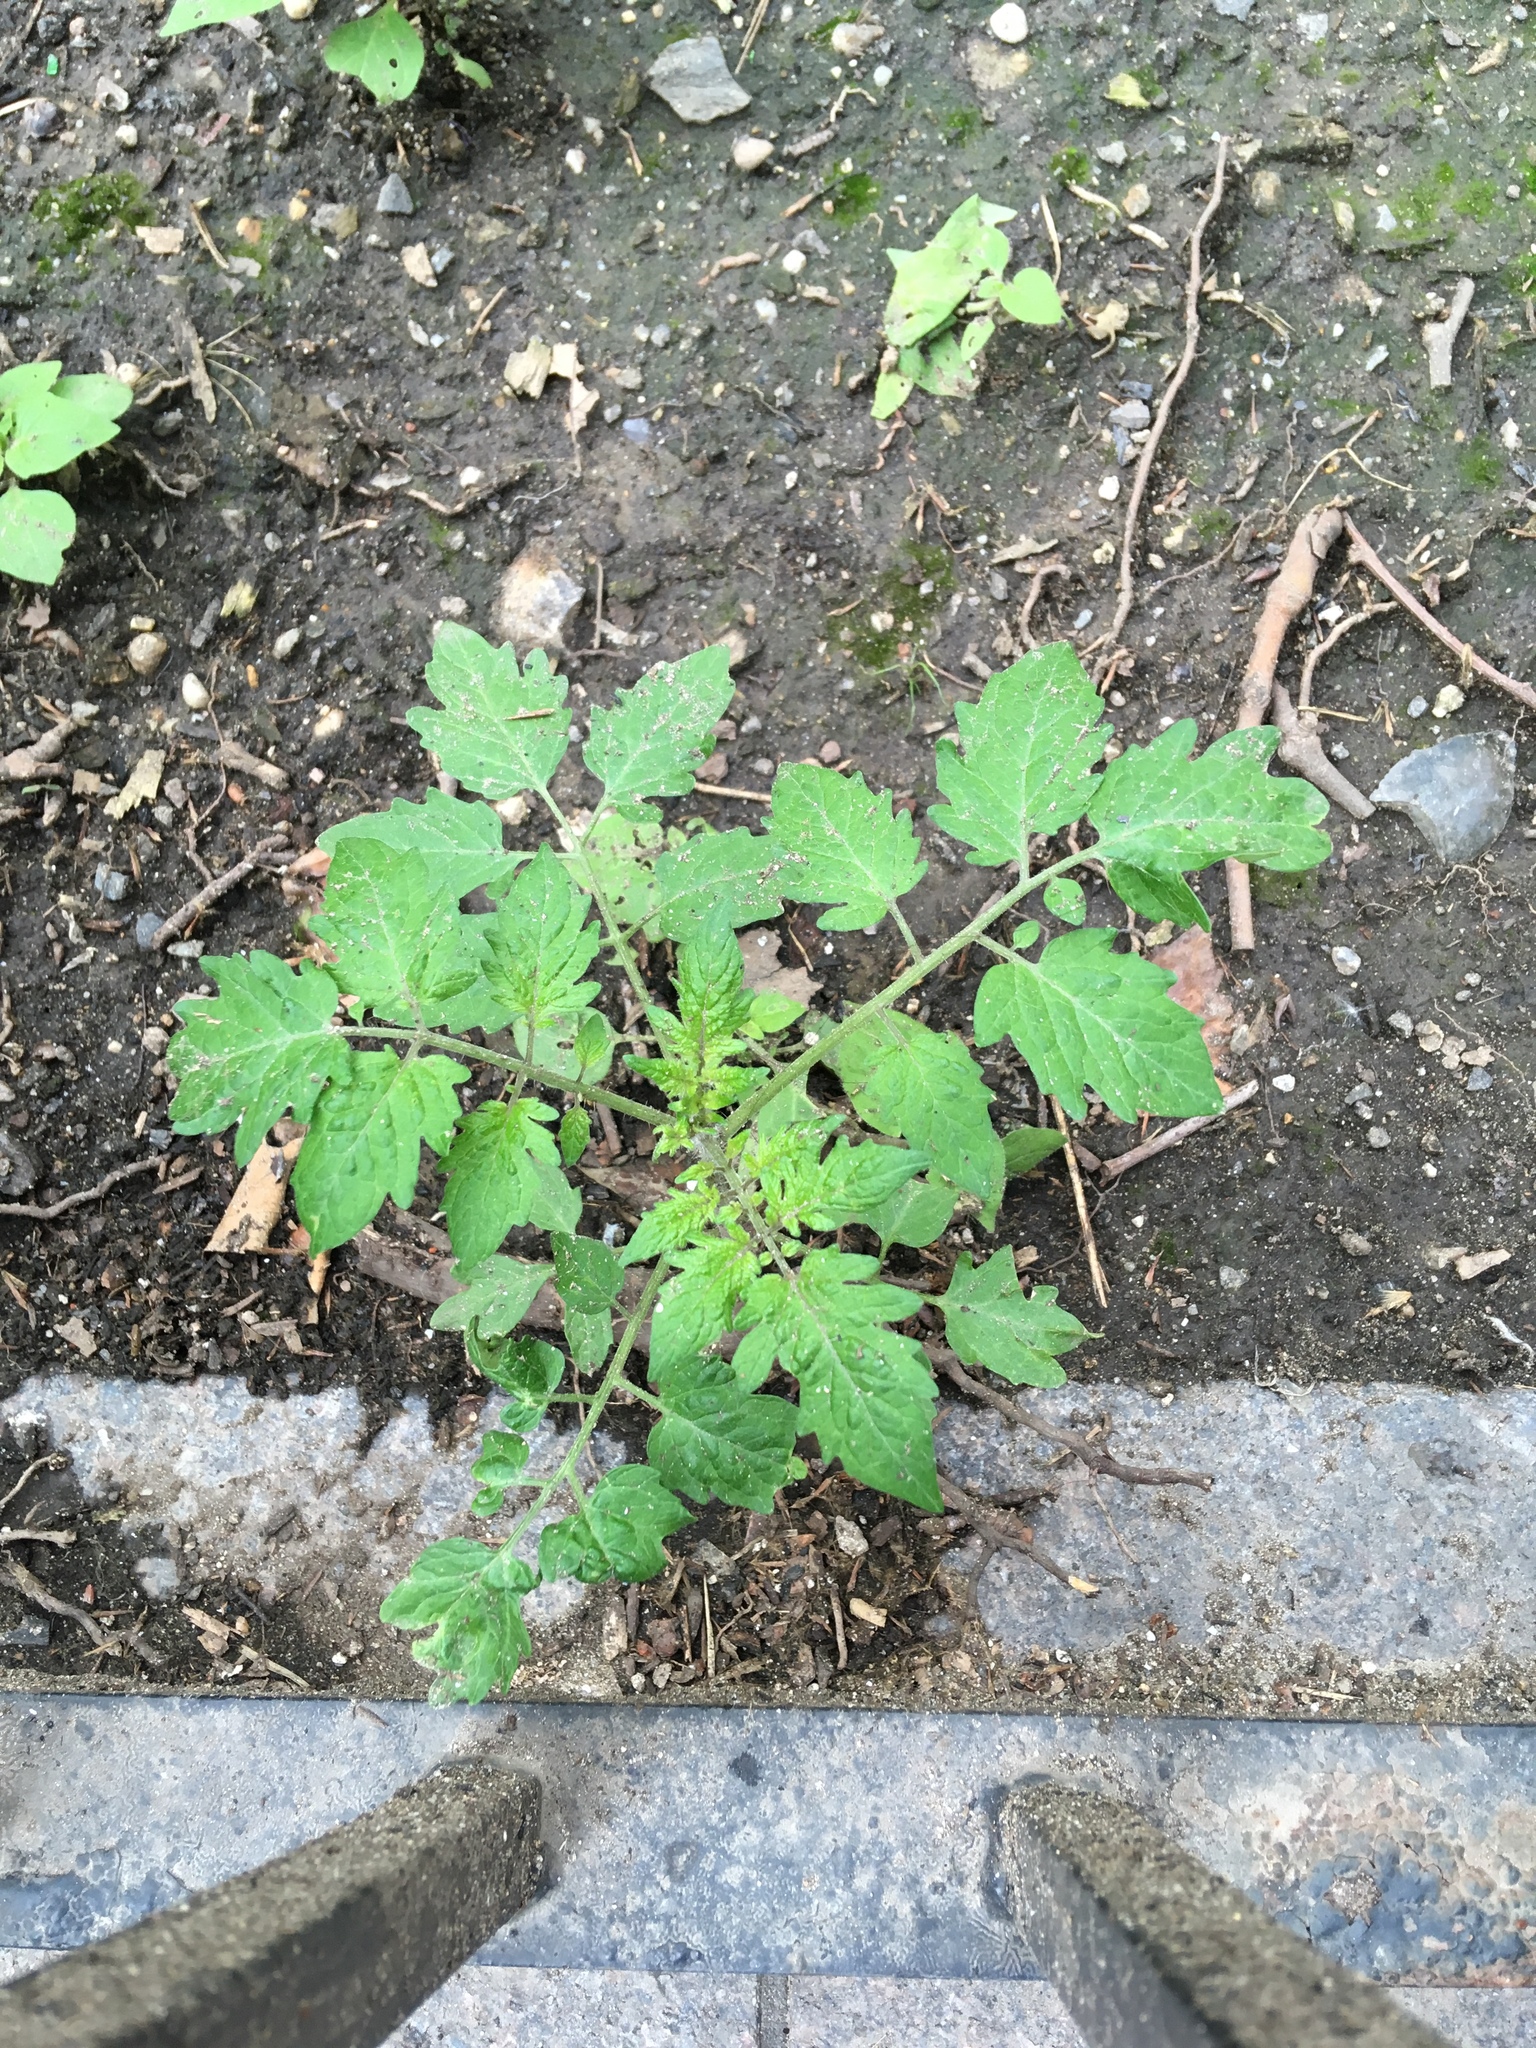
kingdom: Plantae
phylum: Tracheophyta
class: Magnoliopsida
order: Solanales
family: Solanaceae
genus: Solanum
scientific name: Solanum lycopersicum
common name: Garden tomato
